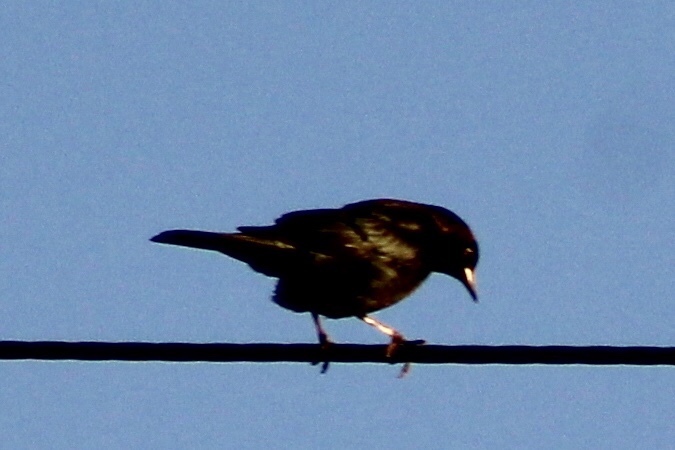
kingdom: Animalia
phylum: Chordata
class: Aves
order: Passeriformes
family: Icteridae
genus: Euphagus
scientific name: Euphagus cyanocephalus
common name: Brewer's blackbird
